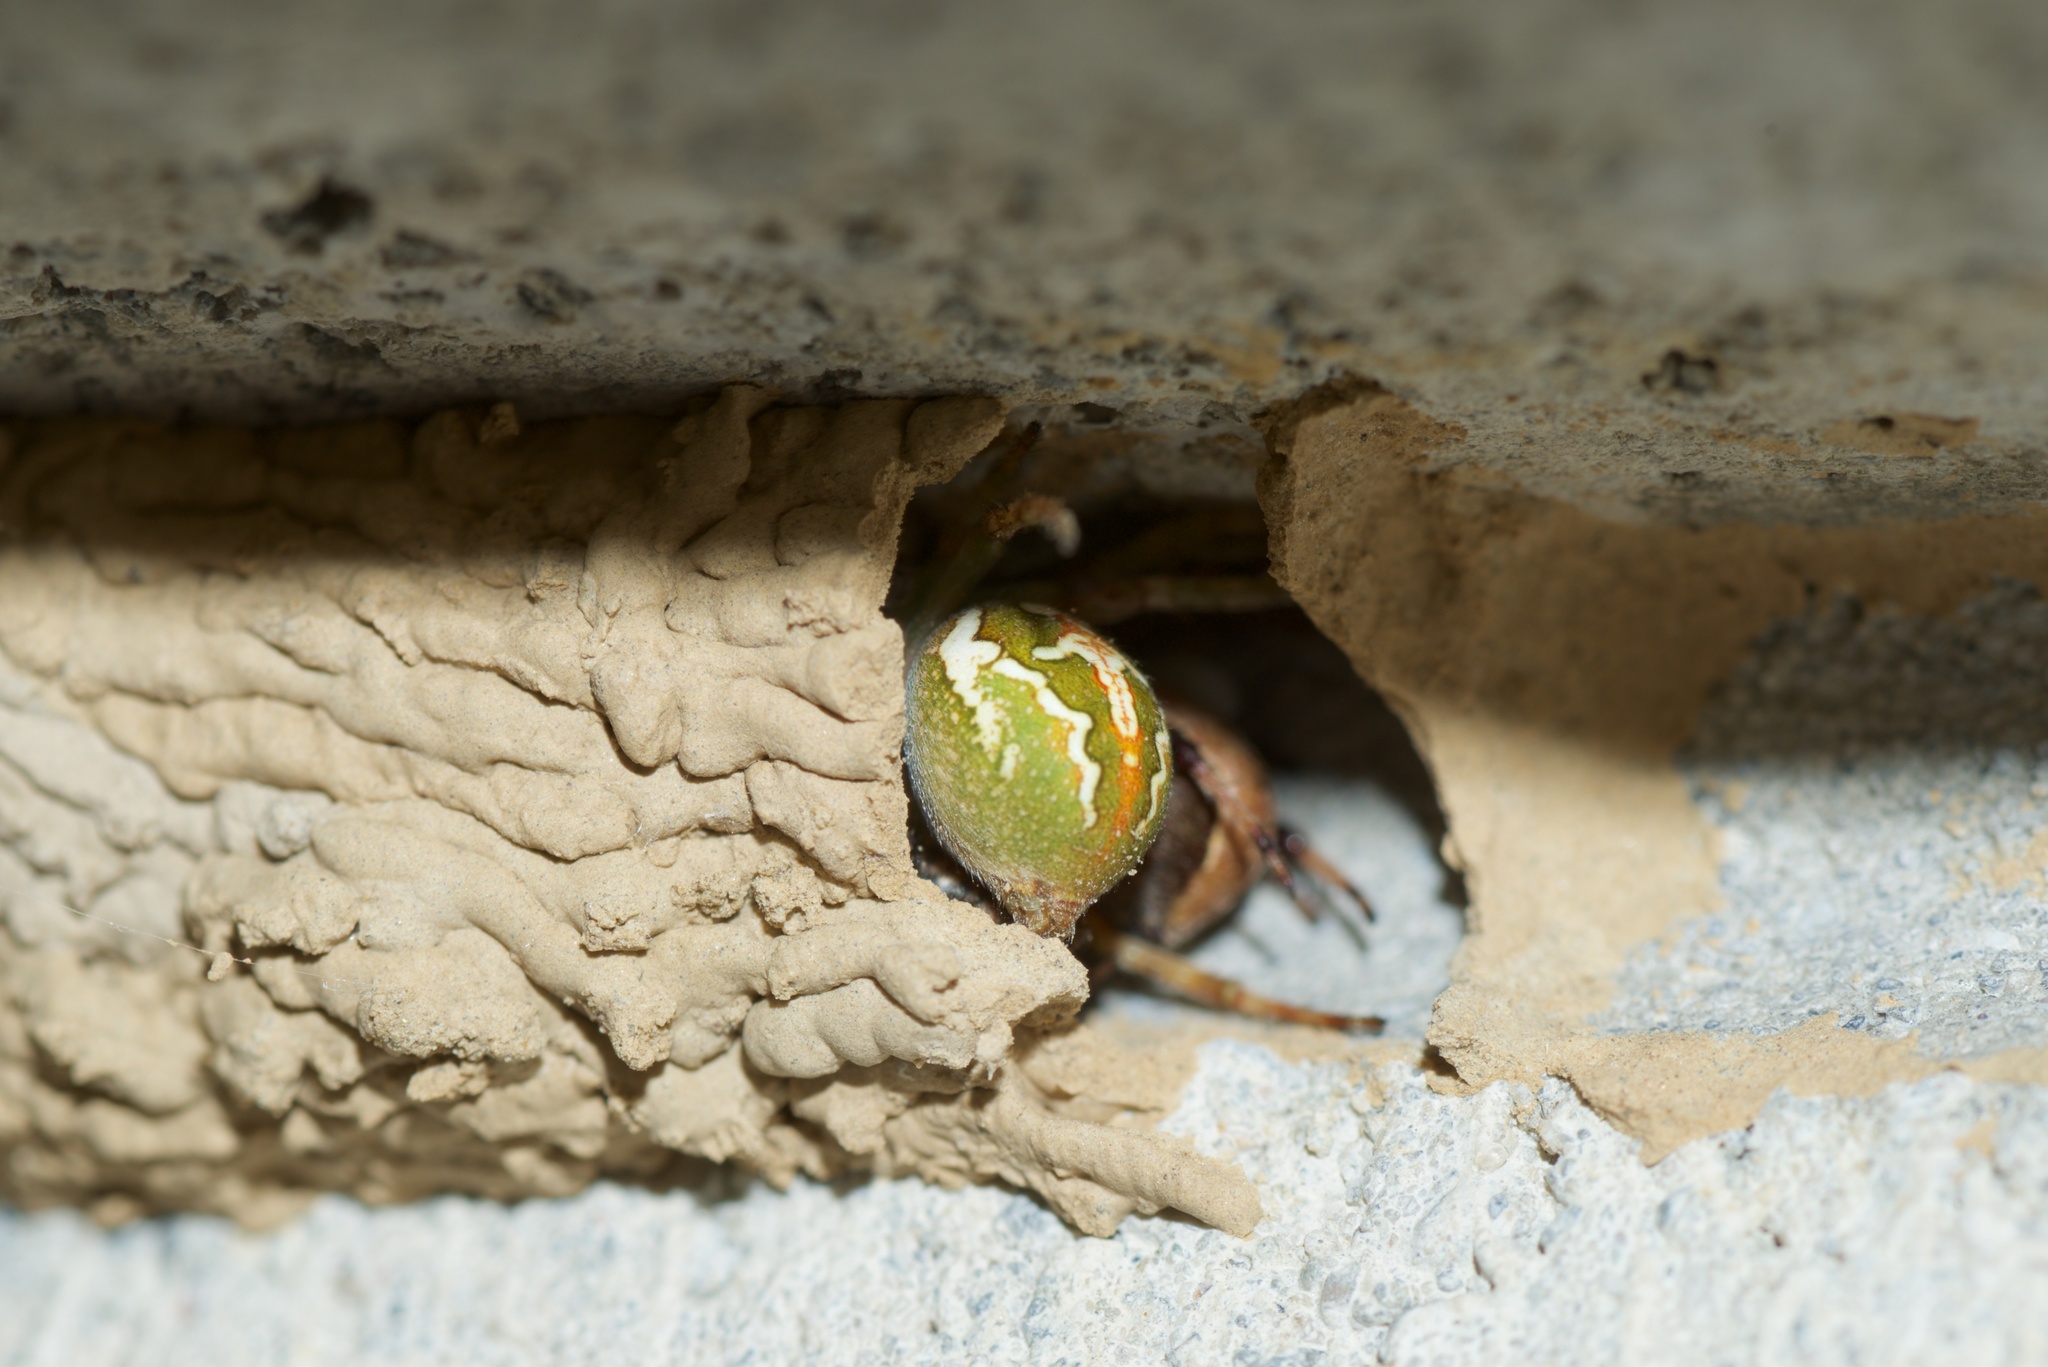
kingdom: Animalia
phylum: Arthropoda
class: Insecta
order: Hymenoptera
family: Crabronidae
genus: Pison
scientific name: Pison spinolae
